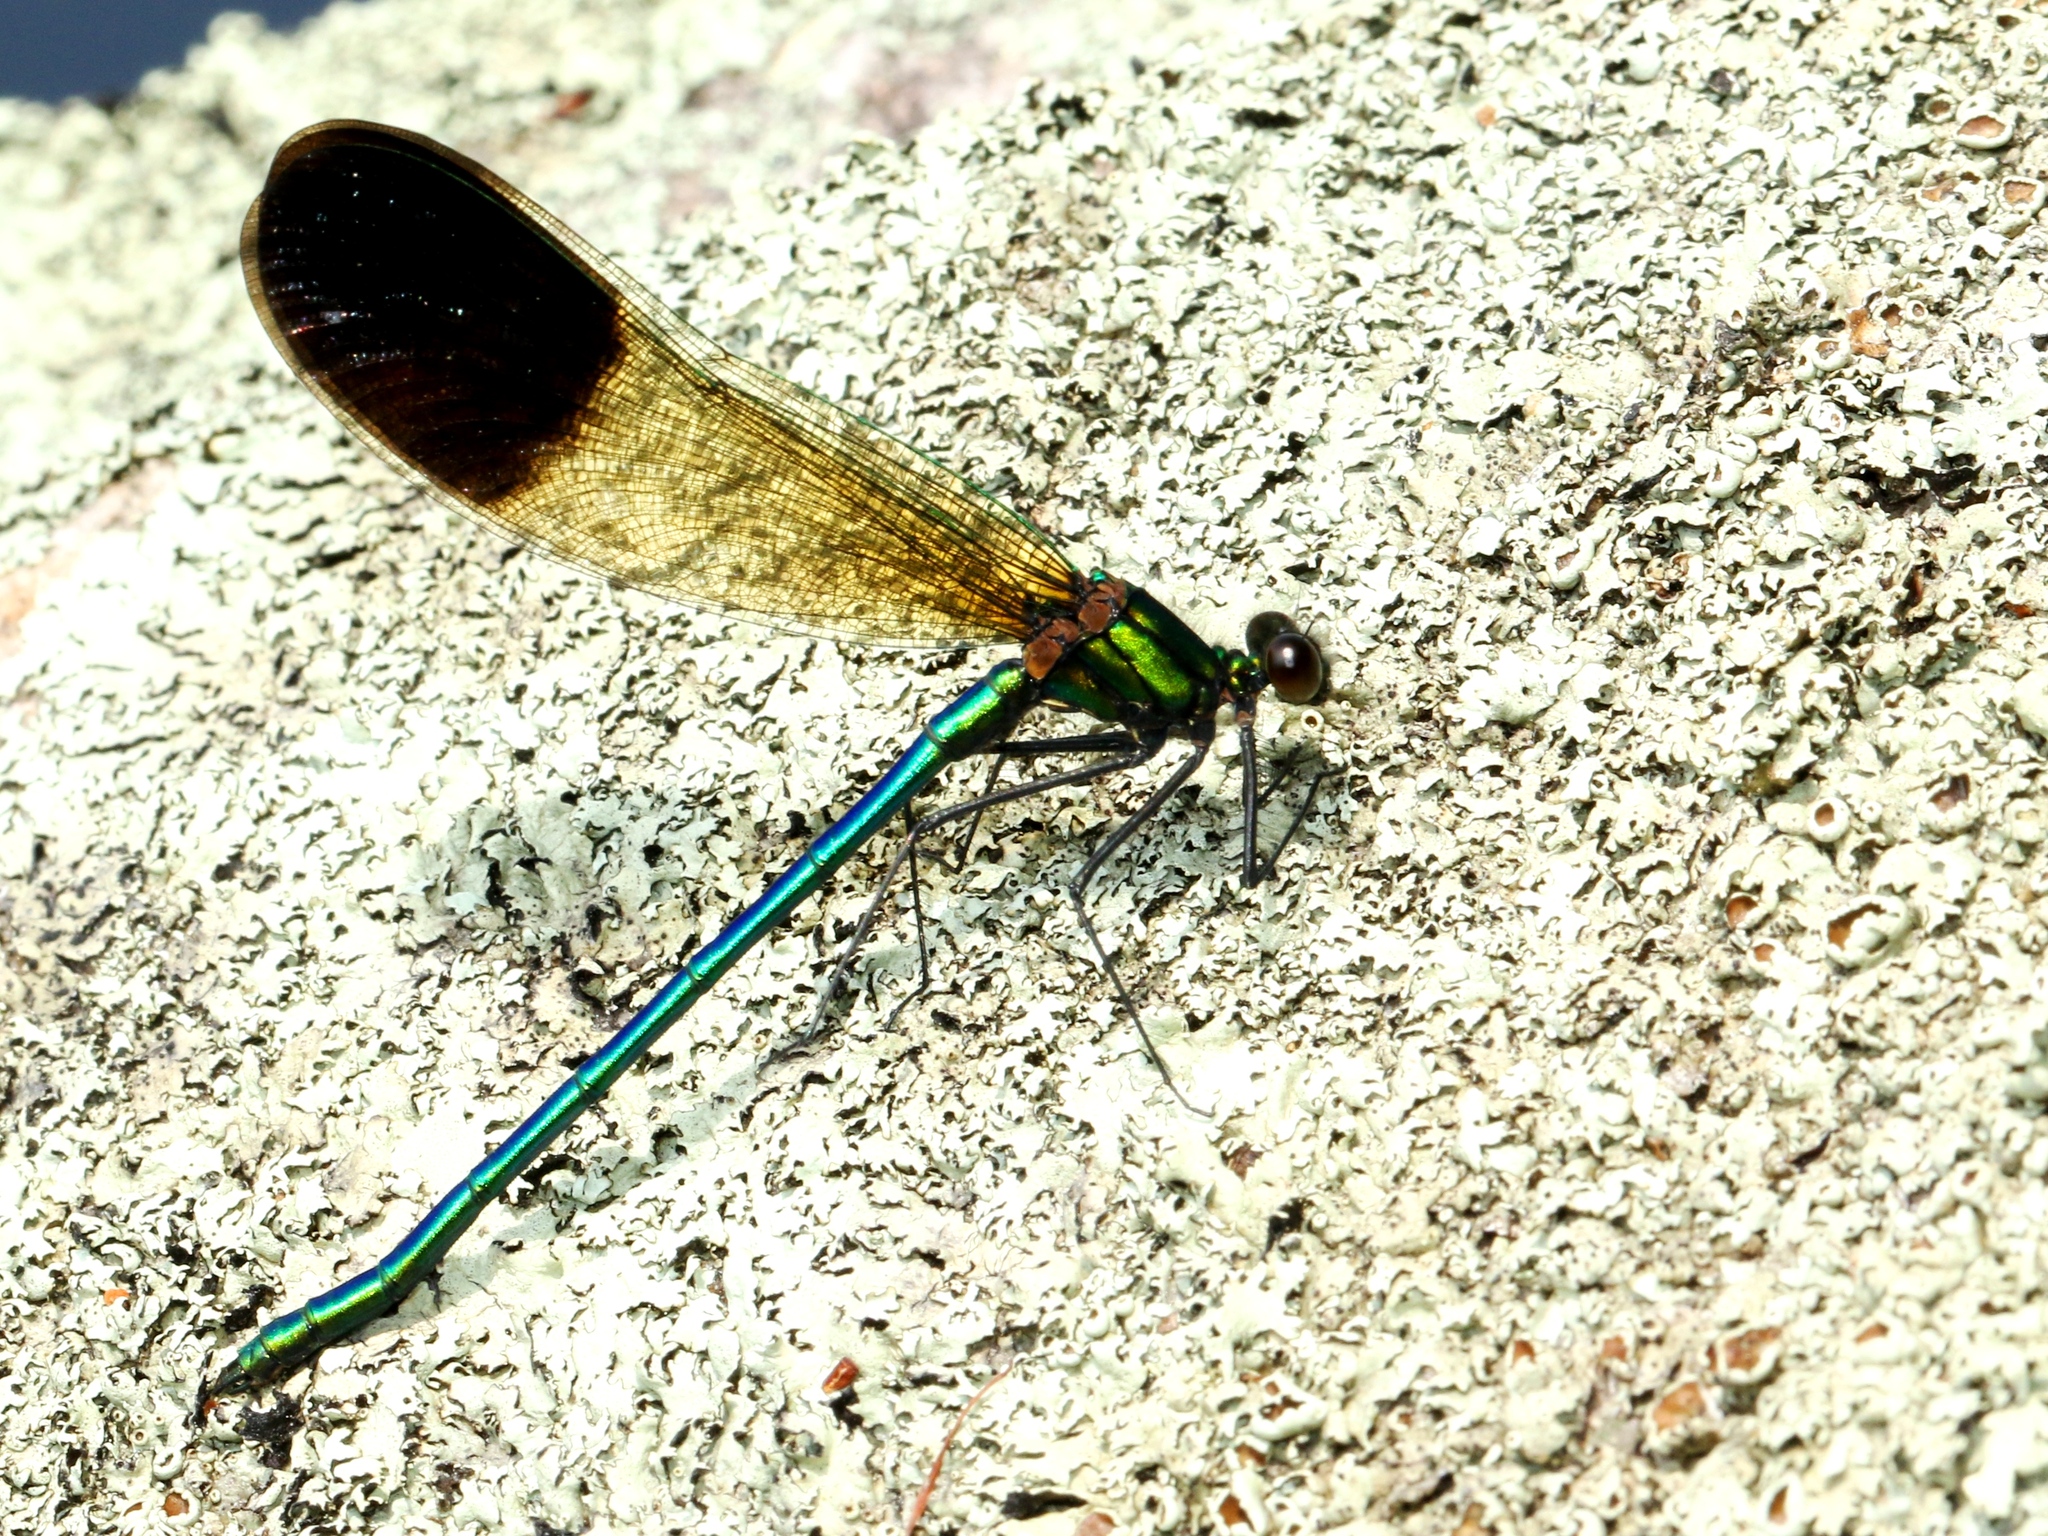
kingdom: Animalia
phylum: Arthropoda
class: Insecta
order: Odonata
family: Calopterygidae
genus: Calopteryx
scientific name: Calopteryx aequabilis
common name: River jewelwing
